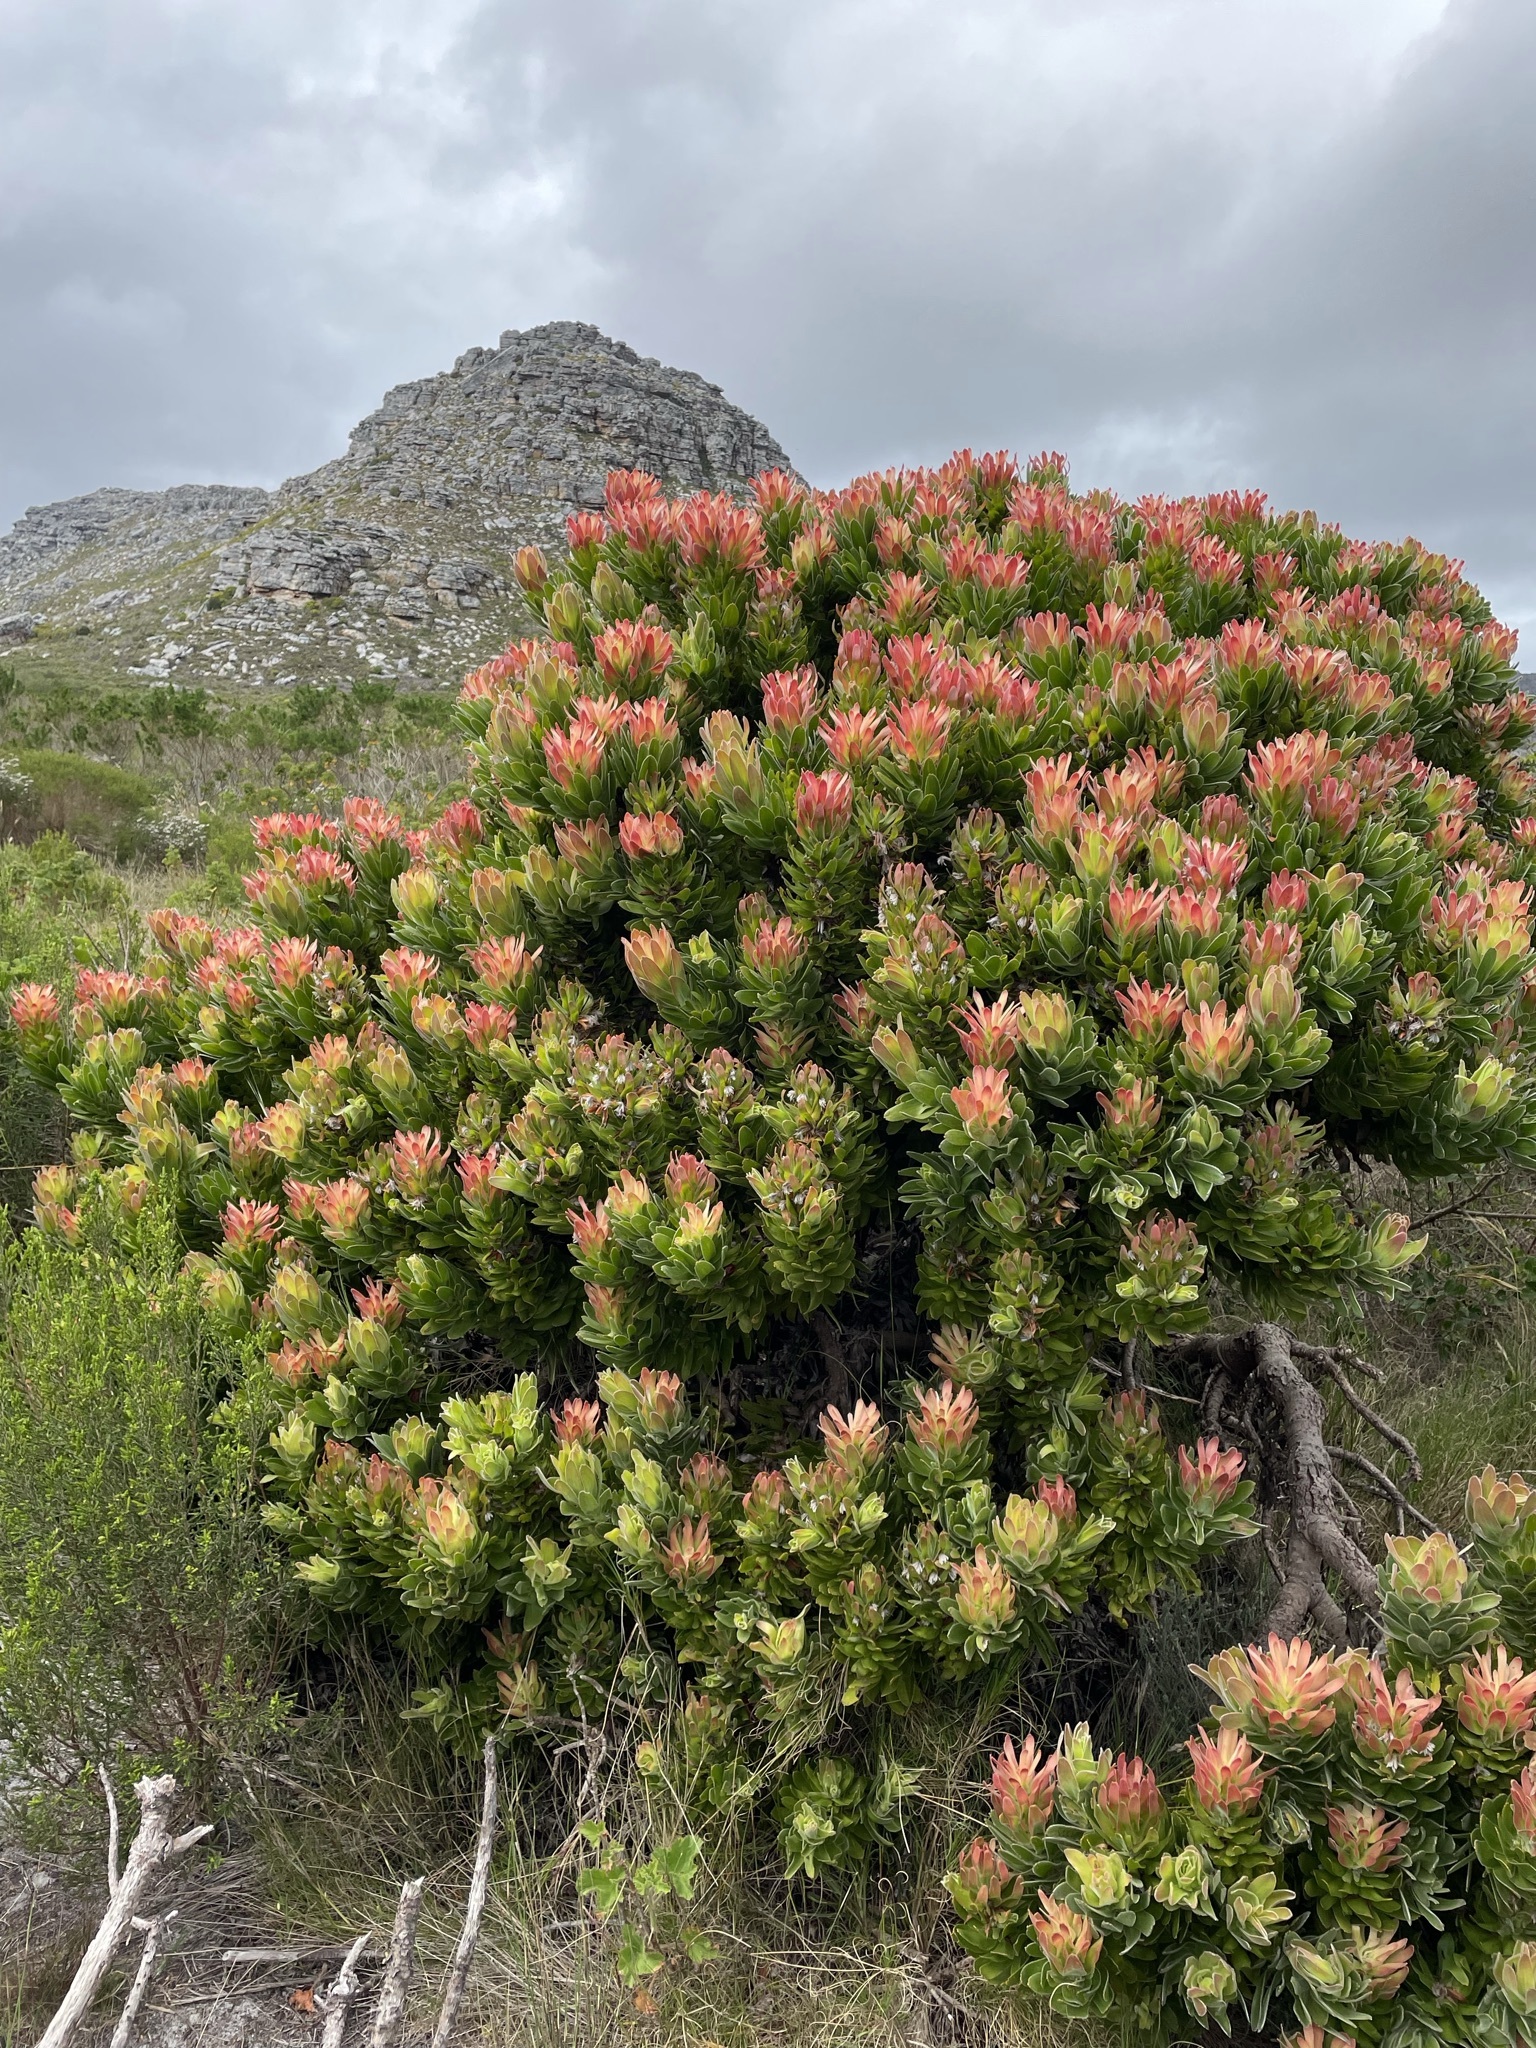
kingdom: Plantae
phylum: Tracheophyta
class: Magnoliopsida
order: Proteales
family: Proteaceae
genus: Mimetes
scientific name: Mimetes fimbriifolius
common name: Fringed bottlebrush
